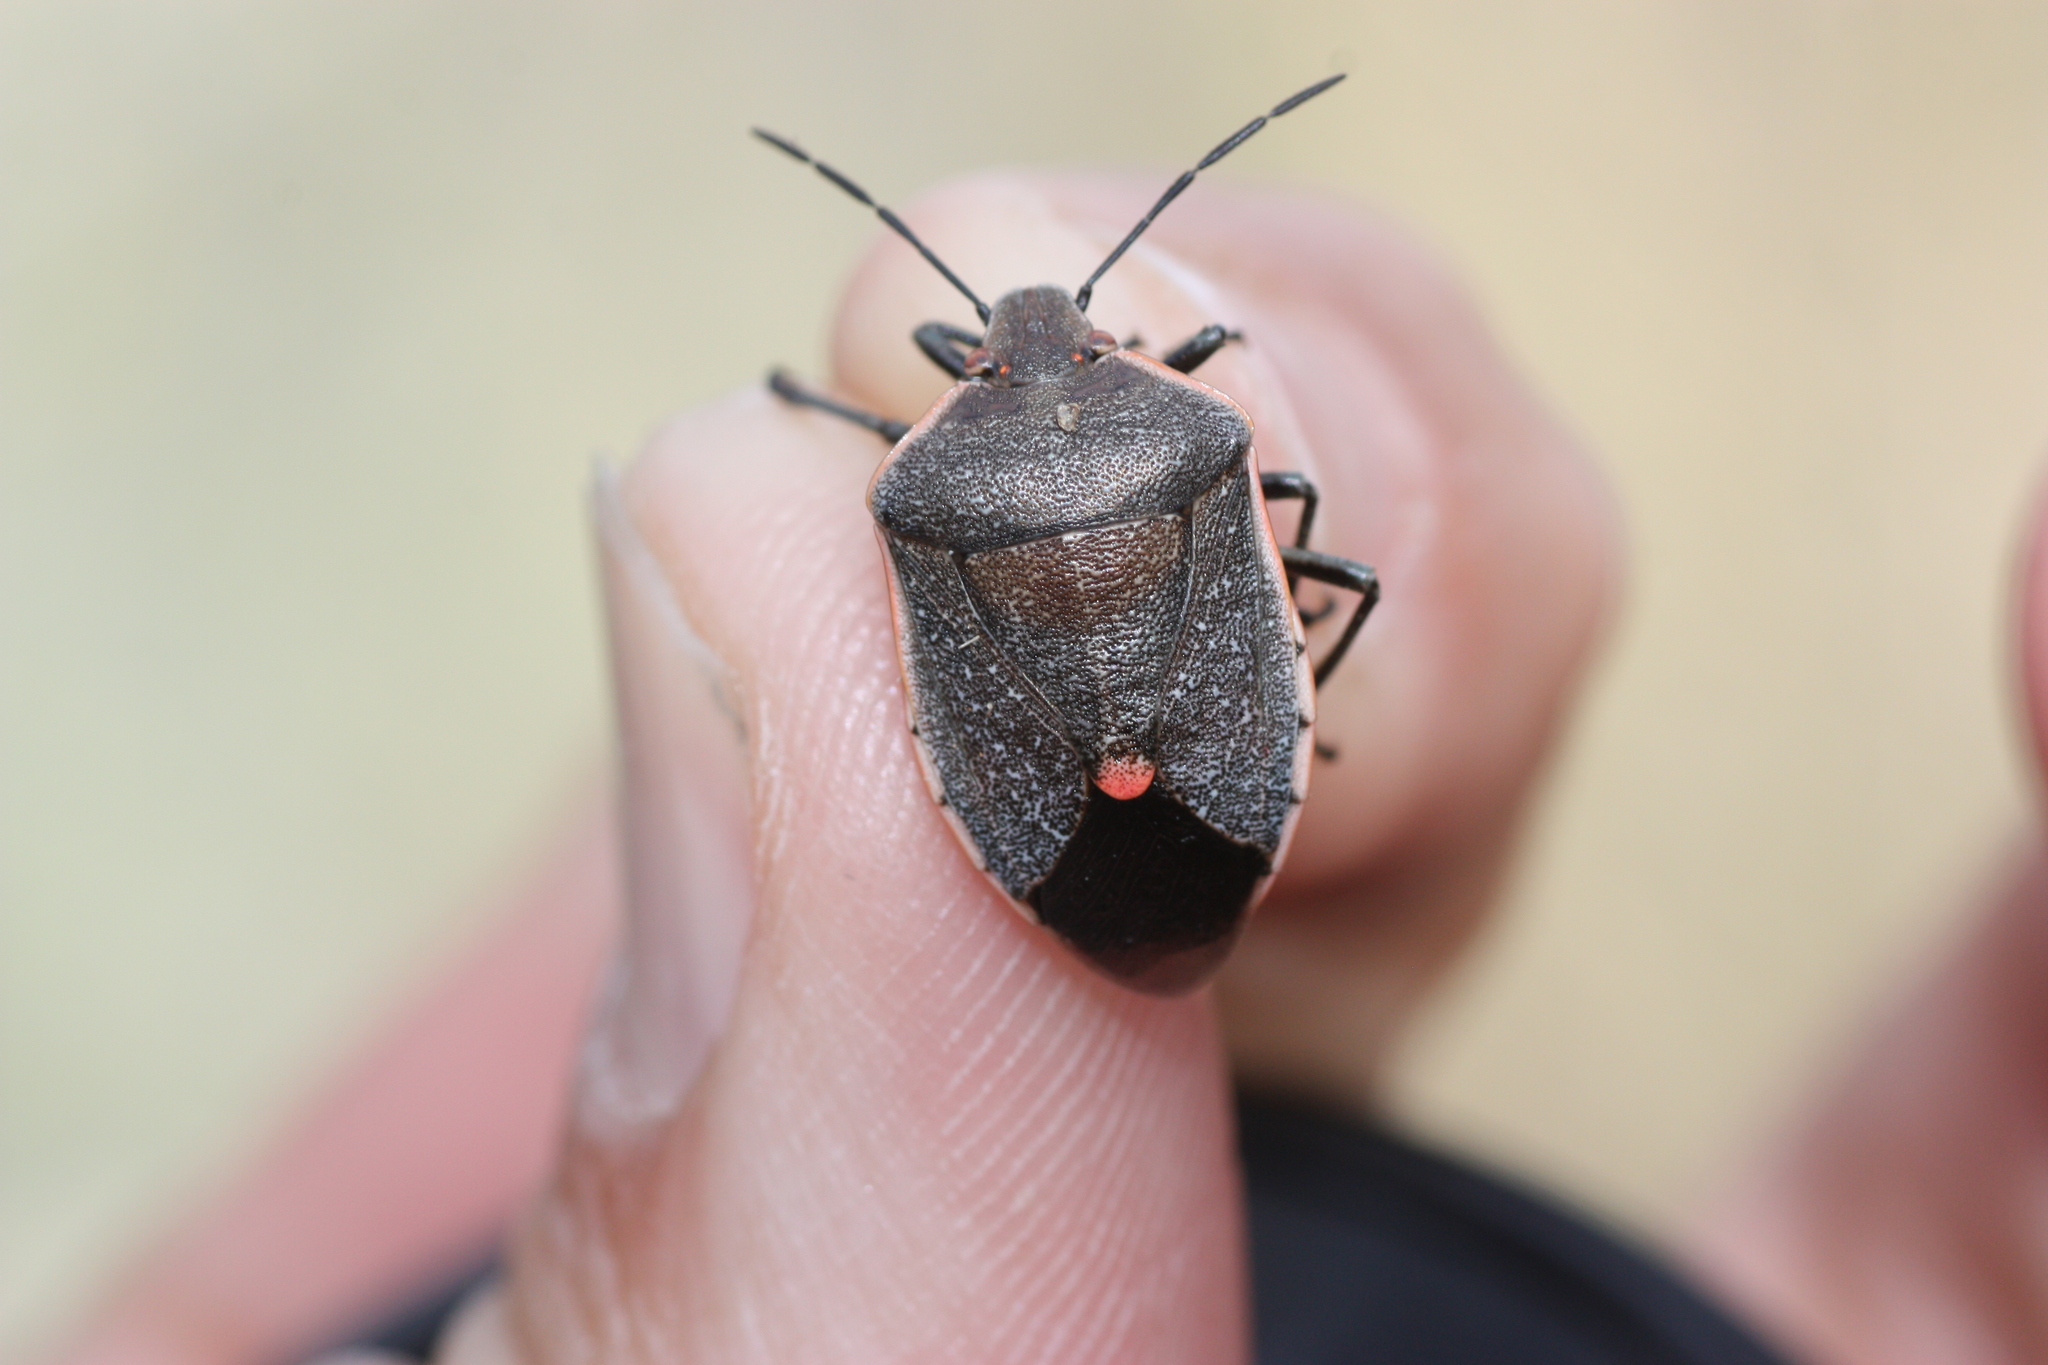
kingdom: Animalia
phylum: Arthropoda
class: Insecta
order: Hemiptera
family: Pentatomidae
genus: Chlorochroa
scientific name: Chlorochroa ligata
